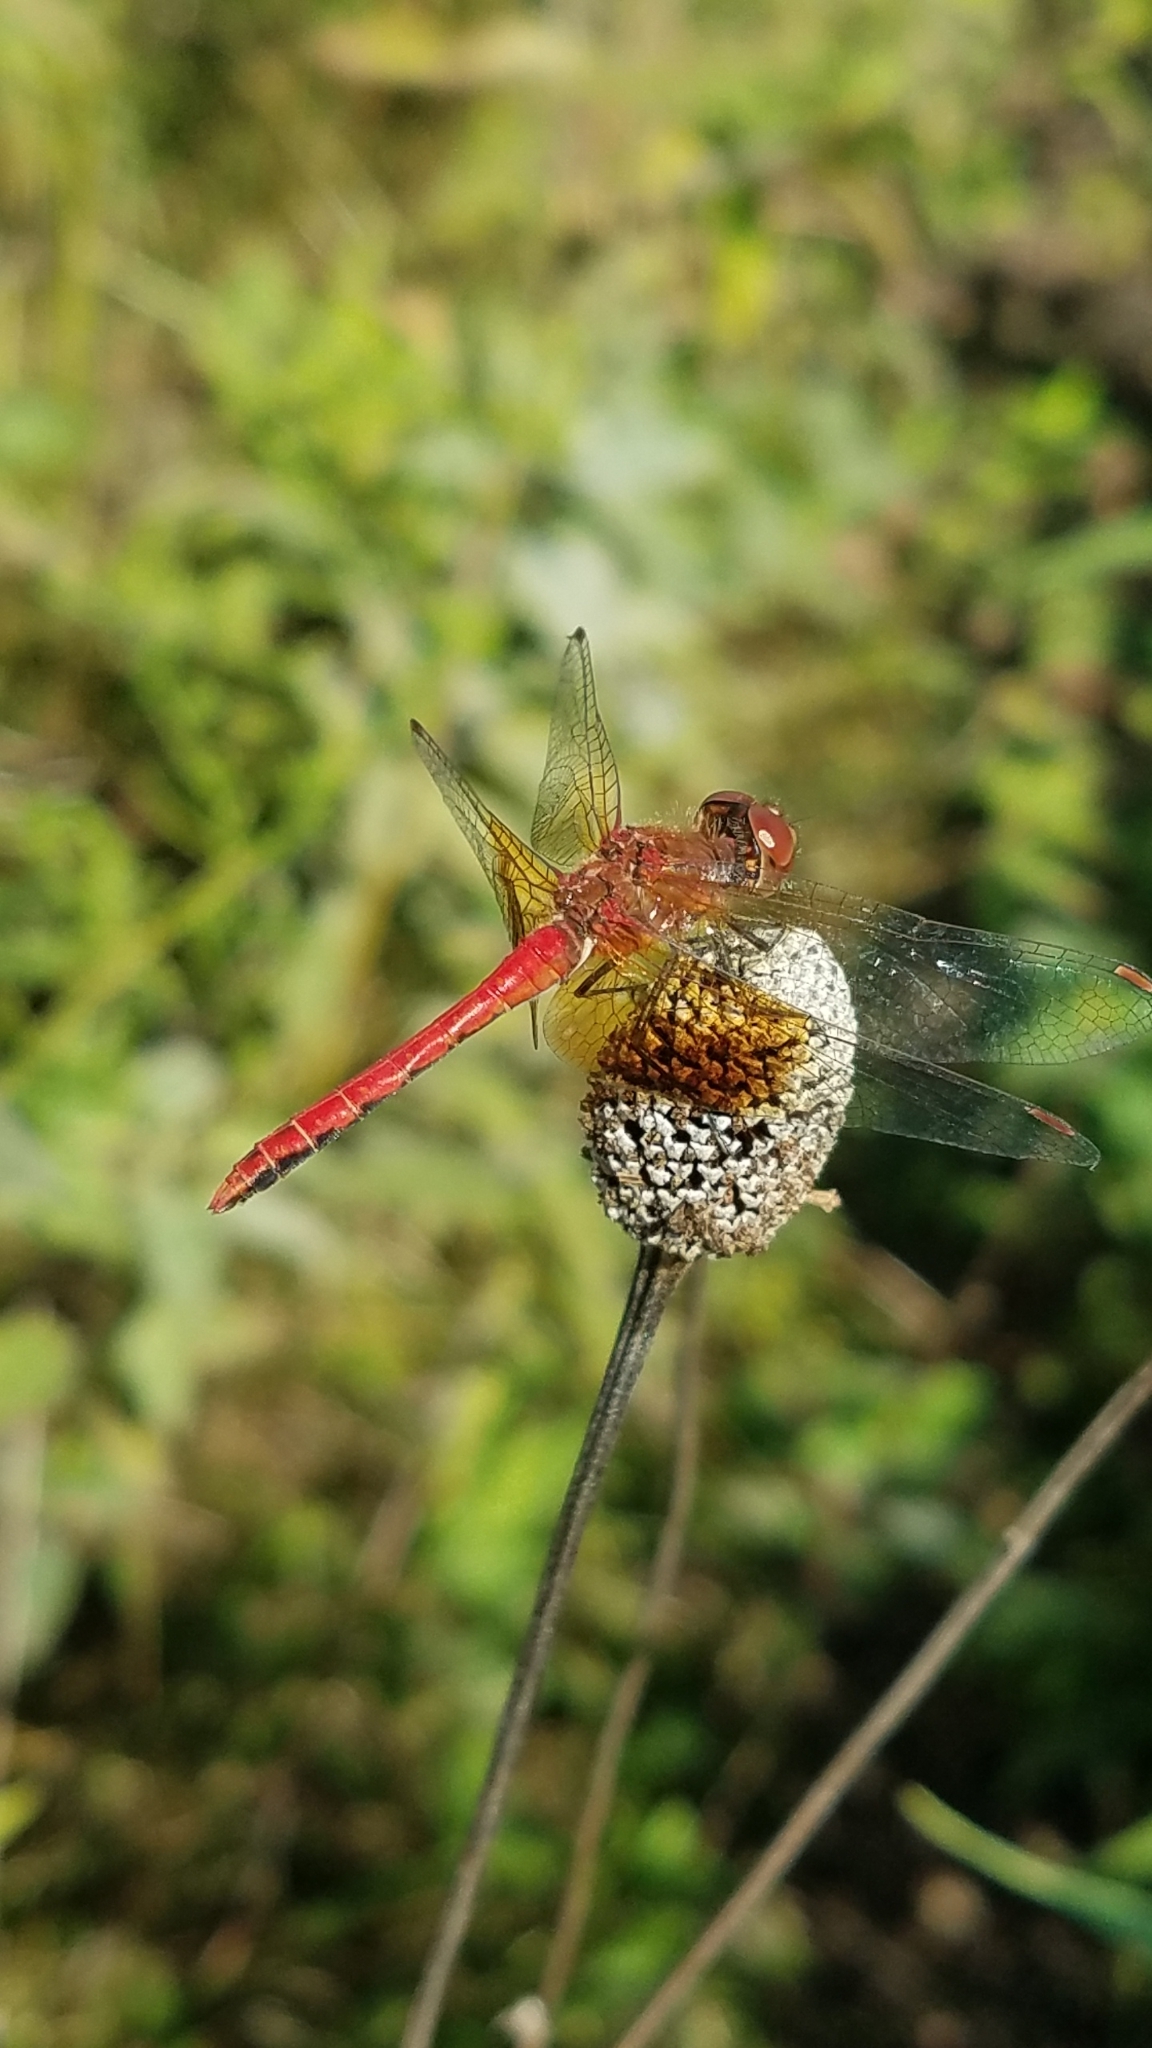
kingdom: Animalia
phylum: Arthropoda
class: Insecta
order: Odonata
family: Libellulidae
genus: Sympetrum
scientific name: Sympetrum semicinctum
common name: Band-winged meadowhawk
